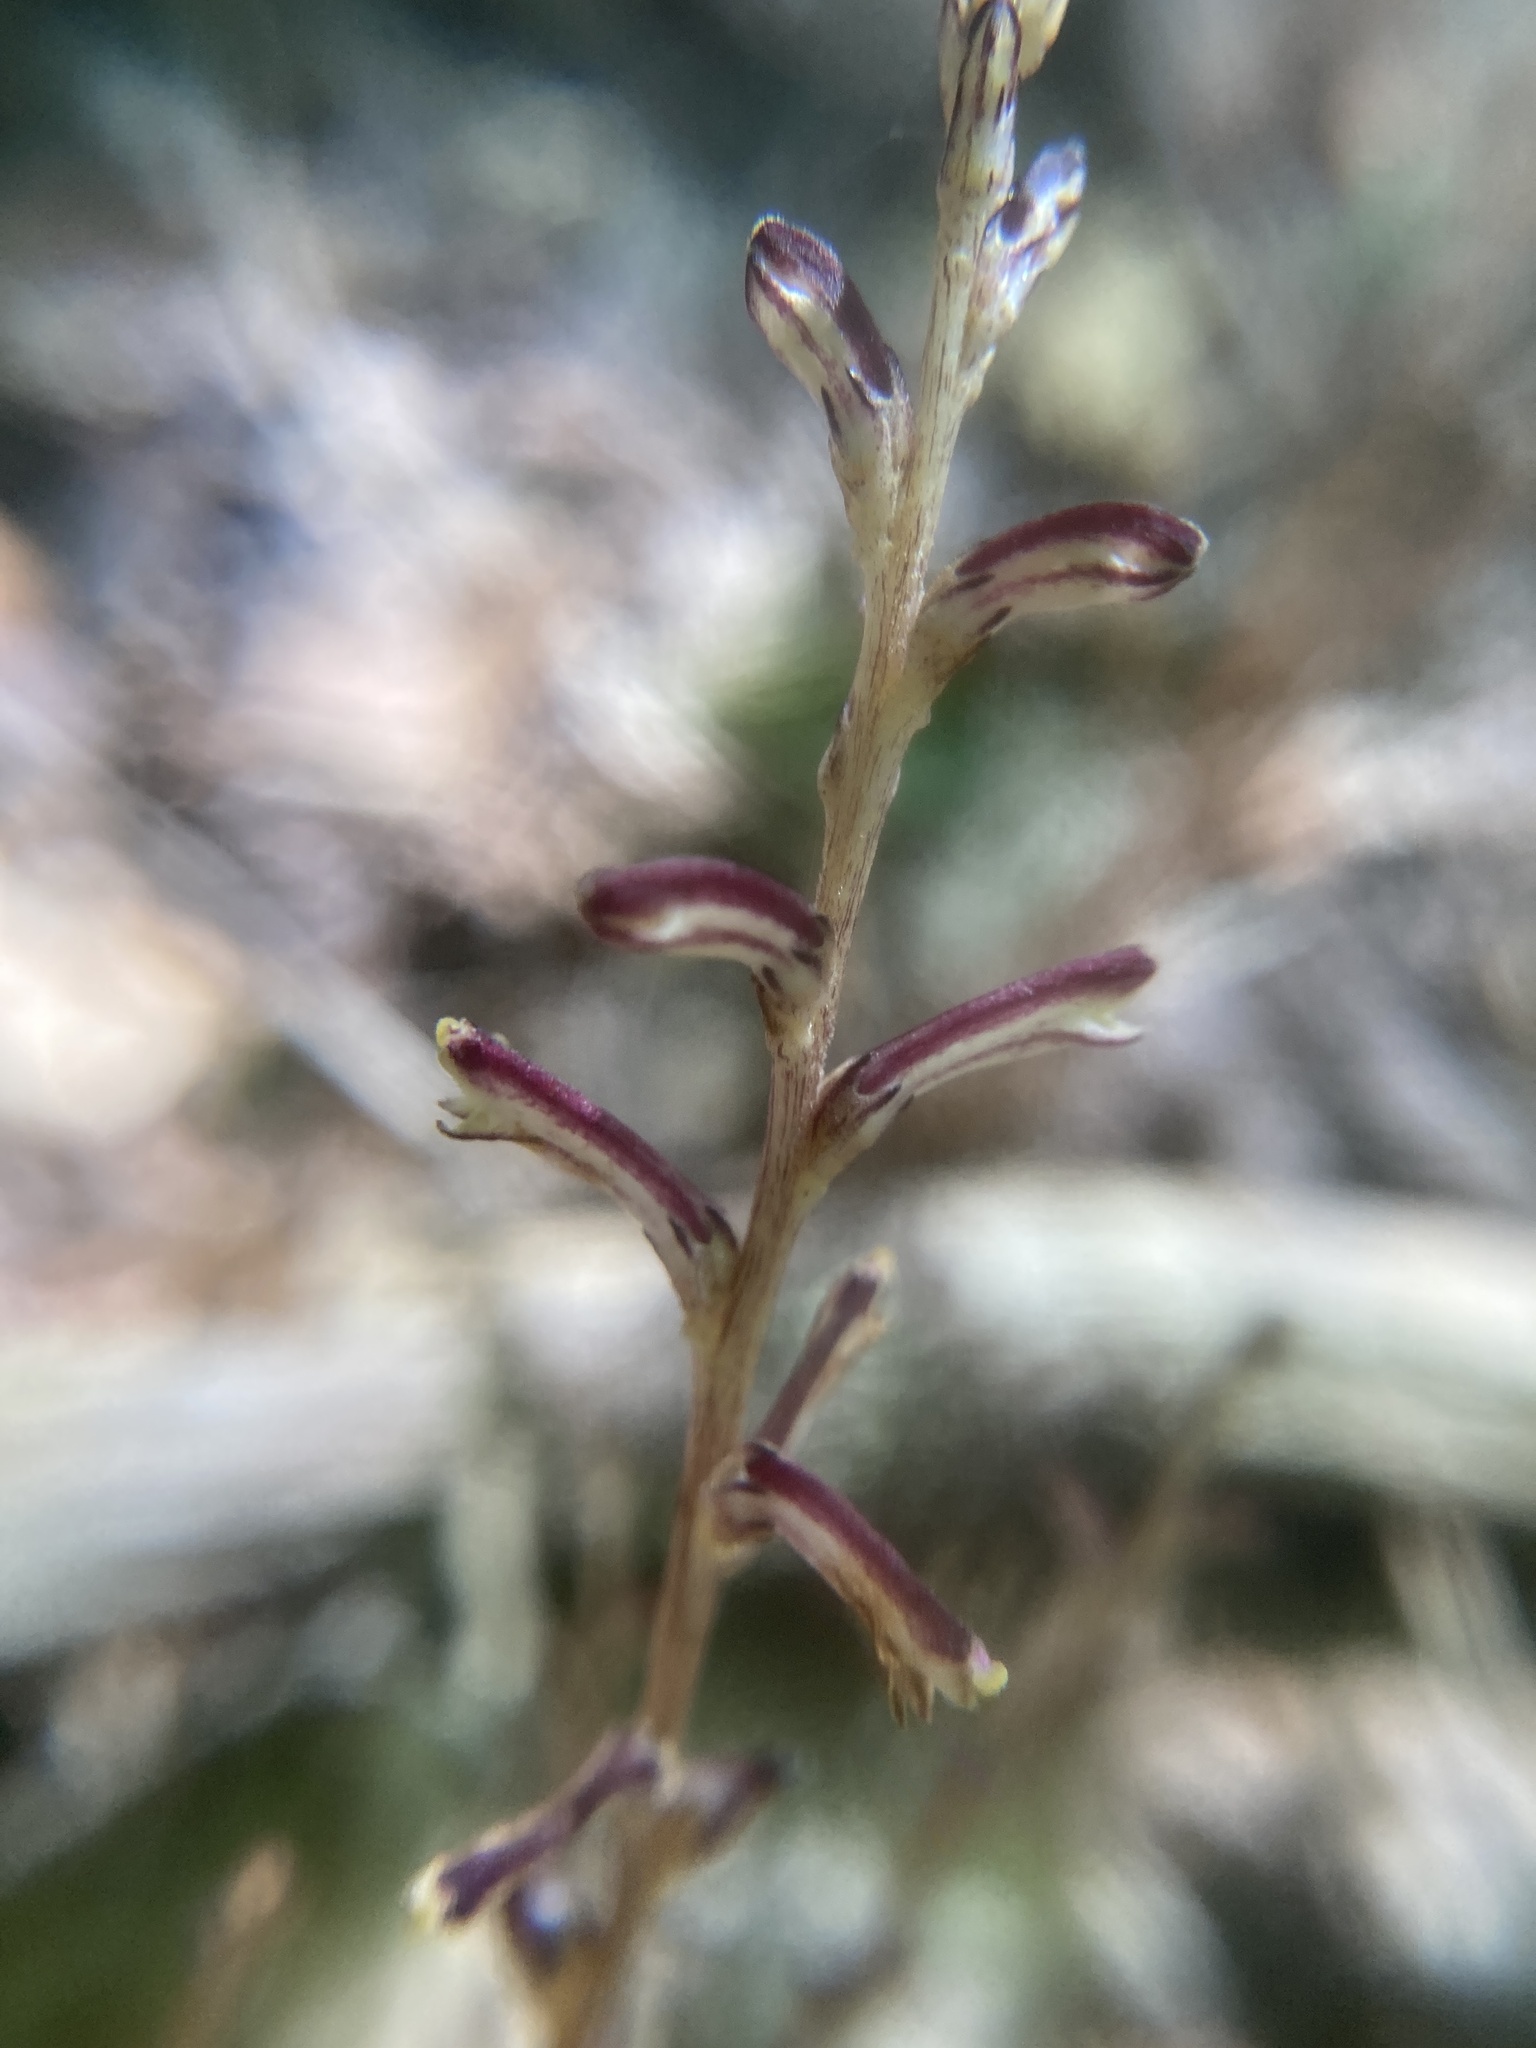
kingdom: Plantae
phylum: Tracheophyta
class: Magnoliopsida
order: Lamiales
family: Orobanchaceae
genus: Epifagus
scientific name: Epifagus virginiana
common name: Beechdrops
